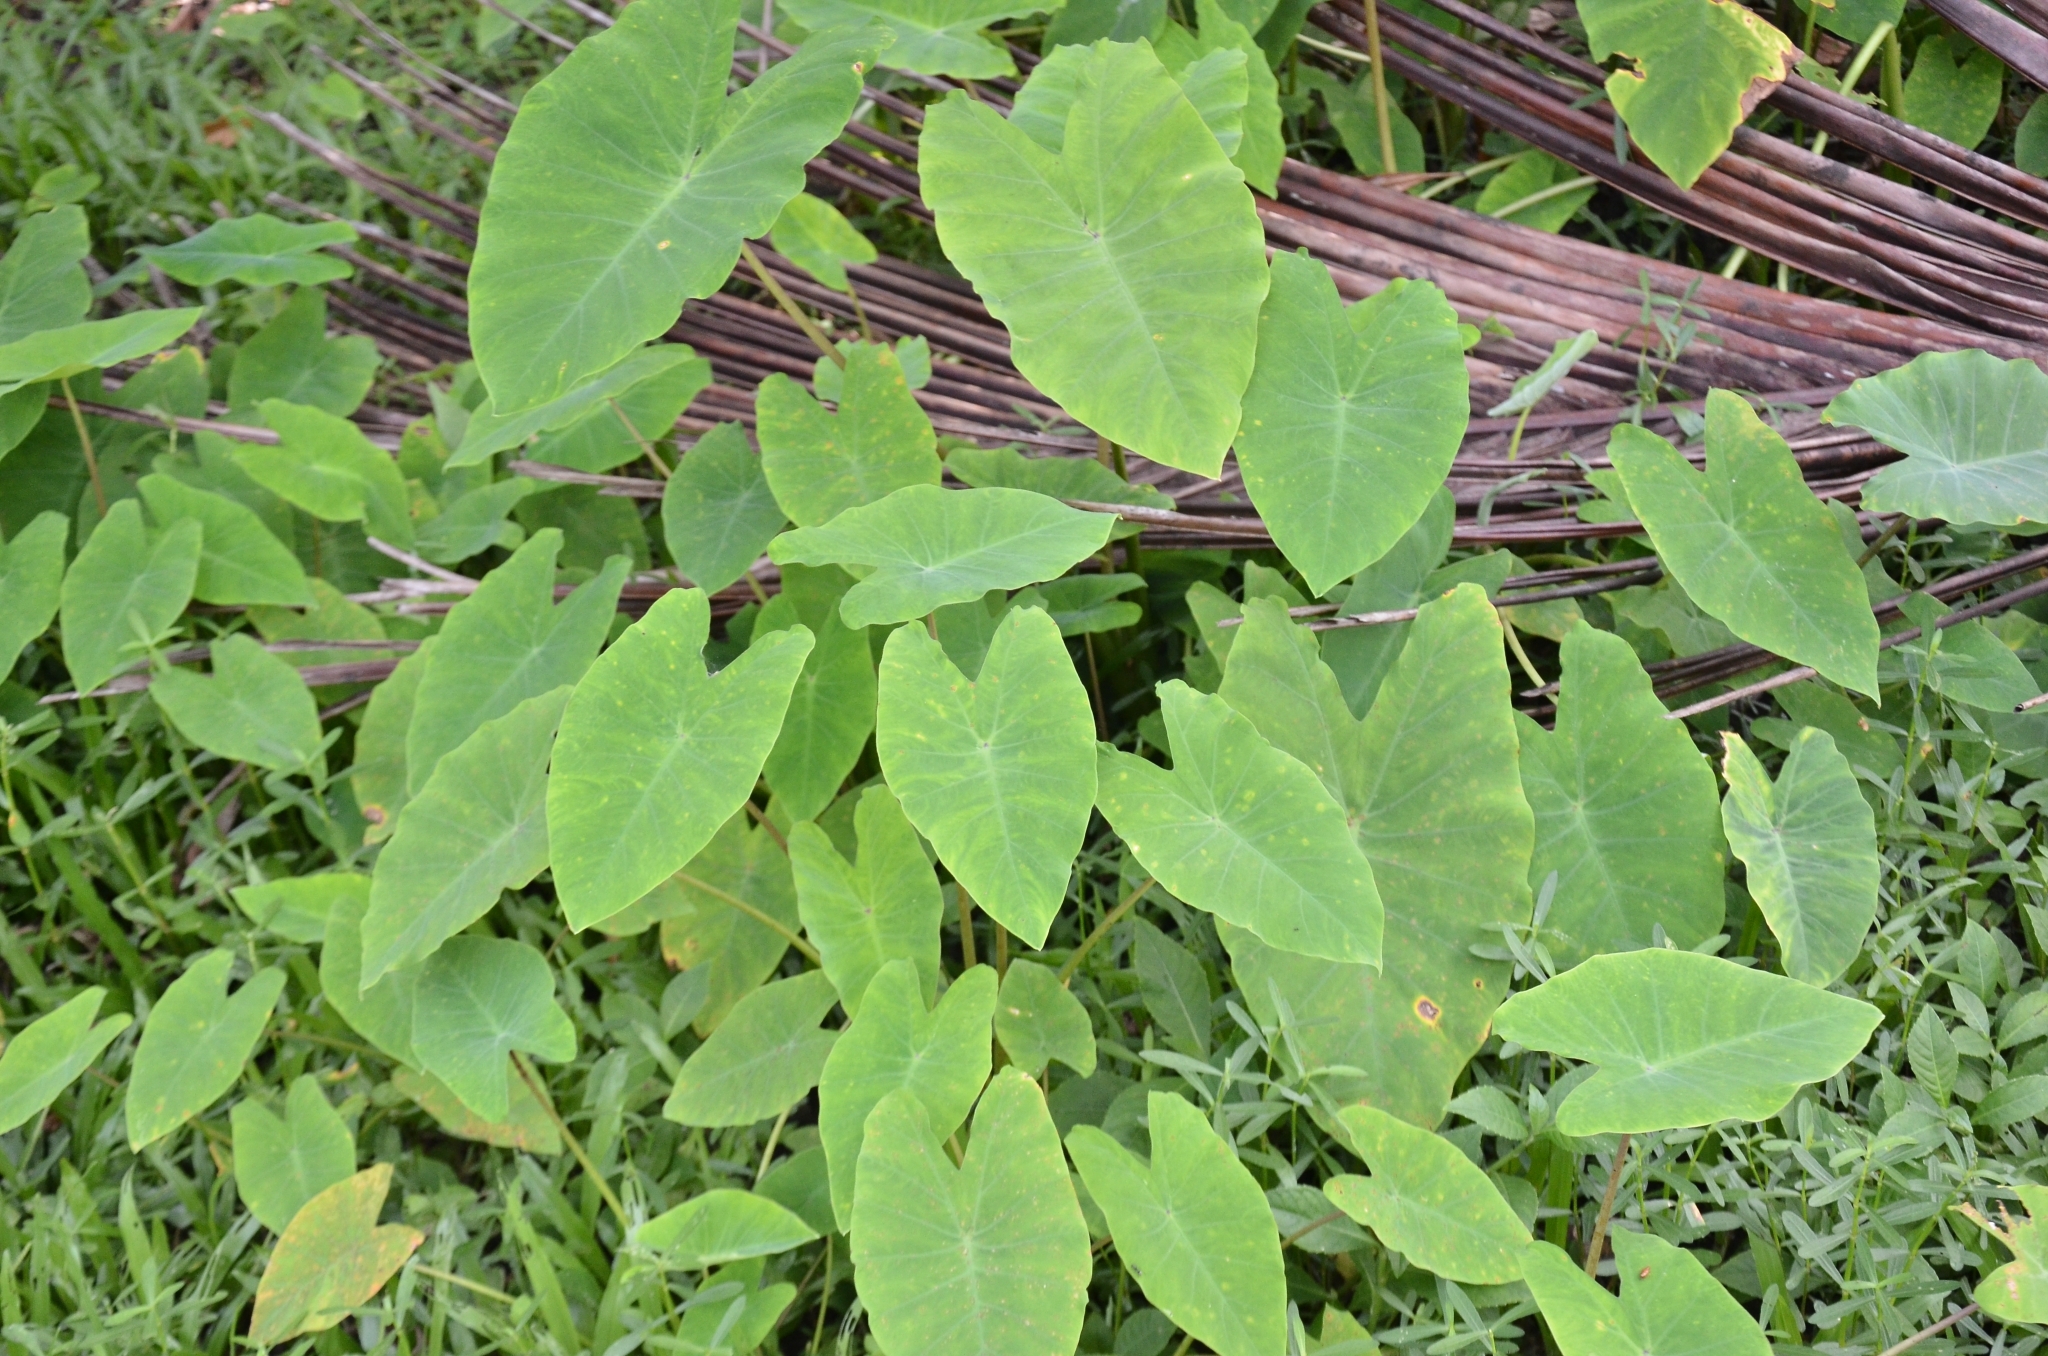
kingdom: Plantae
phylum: Tracheophyta
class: Liliopsida
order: Alismatales
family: Araceae
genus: Colocasia
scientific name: Colocasia esculenta
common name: Taro
